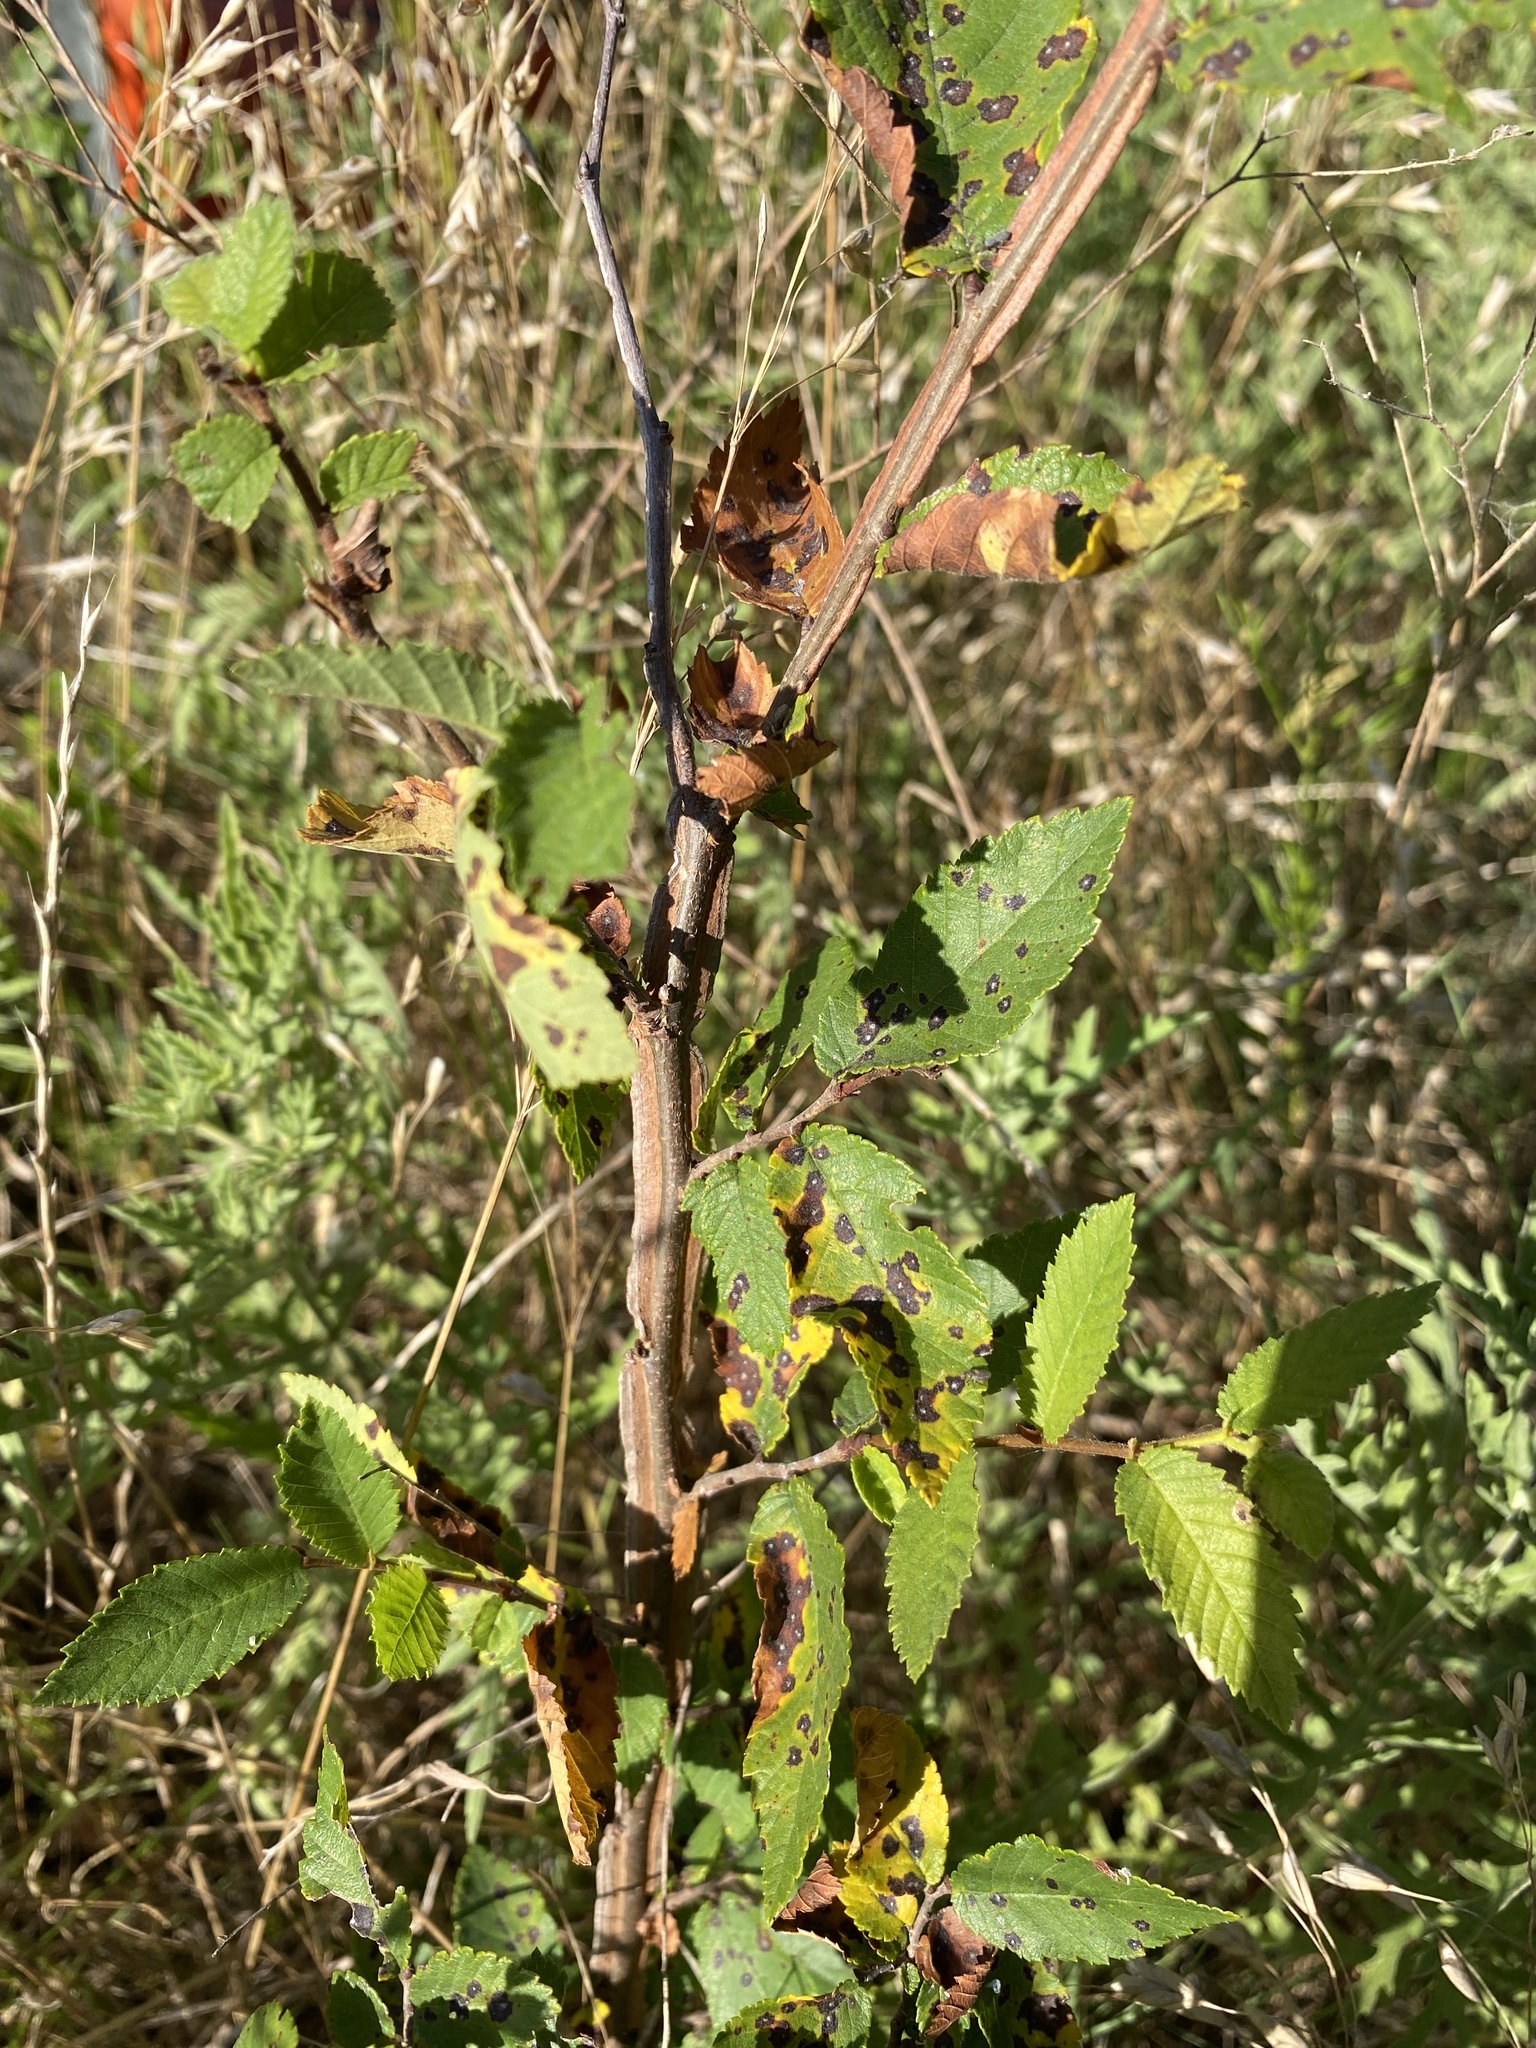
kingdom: Plantae
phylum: Tracheophyta
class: Magnoliopsida
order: Rosales
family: Ulmaceae
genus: Ulmus
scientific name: Ulmus alata
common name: Winged elm
